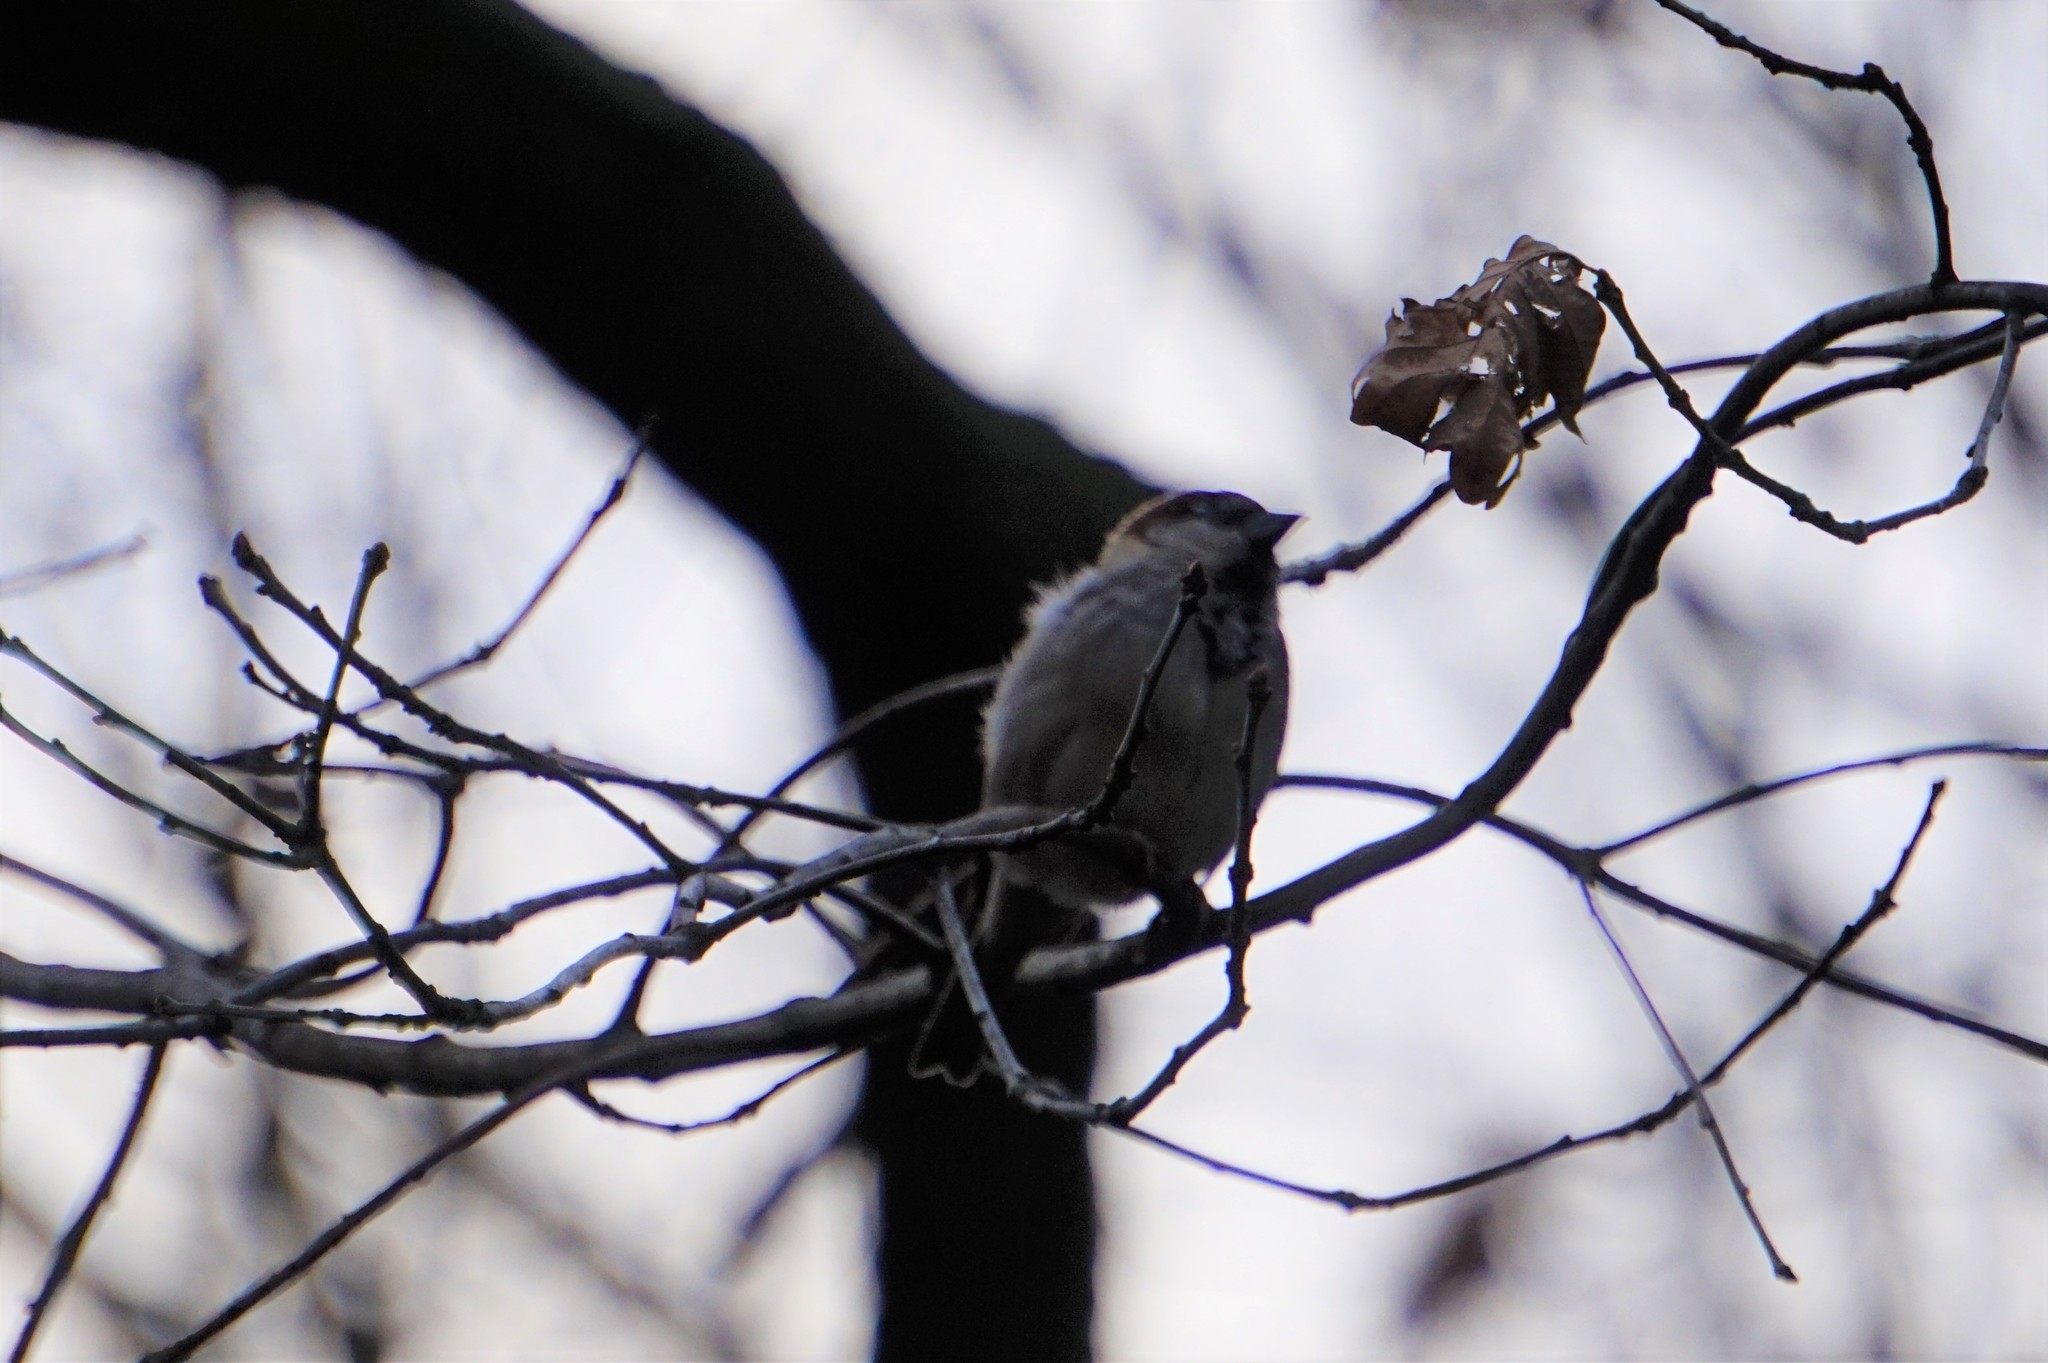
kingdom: Animalia
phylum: Chordata
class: Aves
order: Passeriformes
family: Passeridae
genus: Passer
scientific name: Passer domesticus
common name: House sparrow
